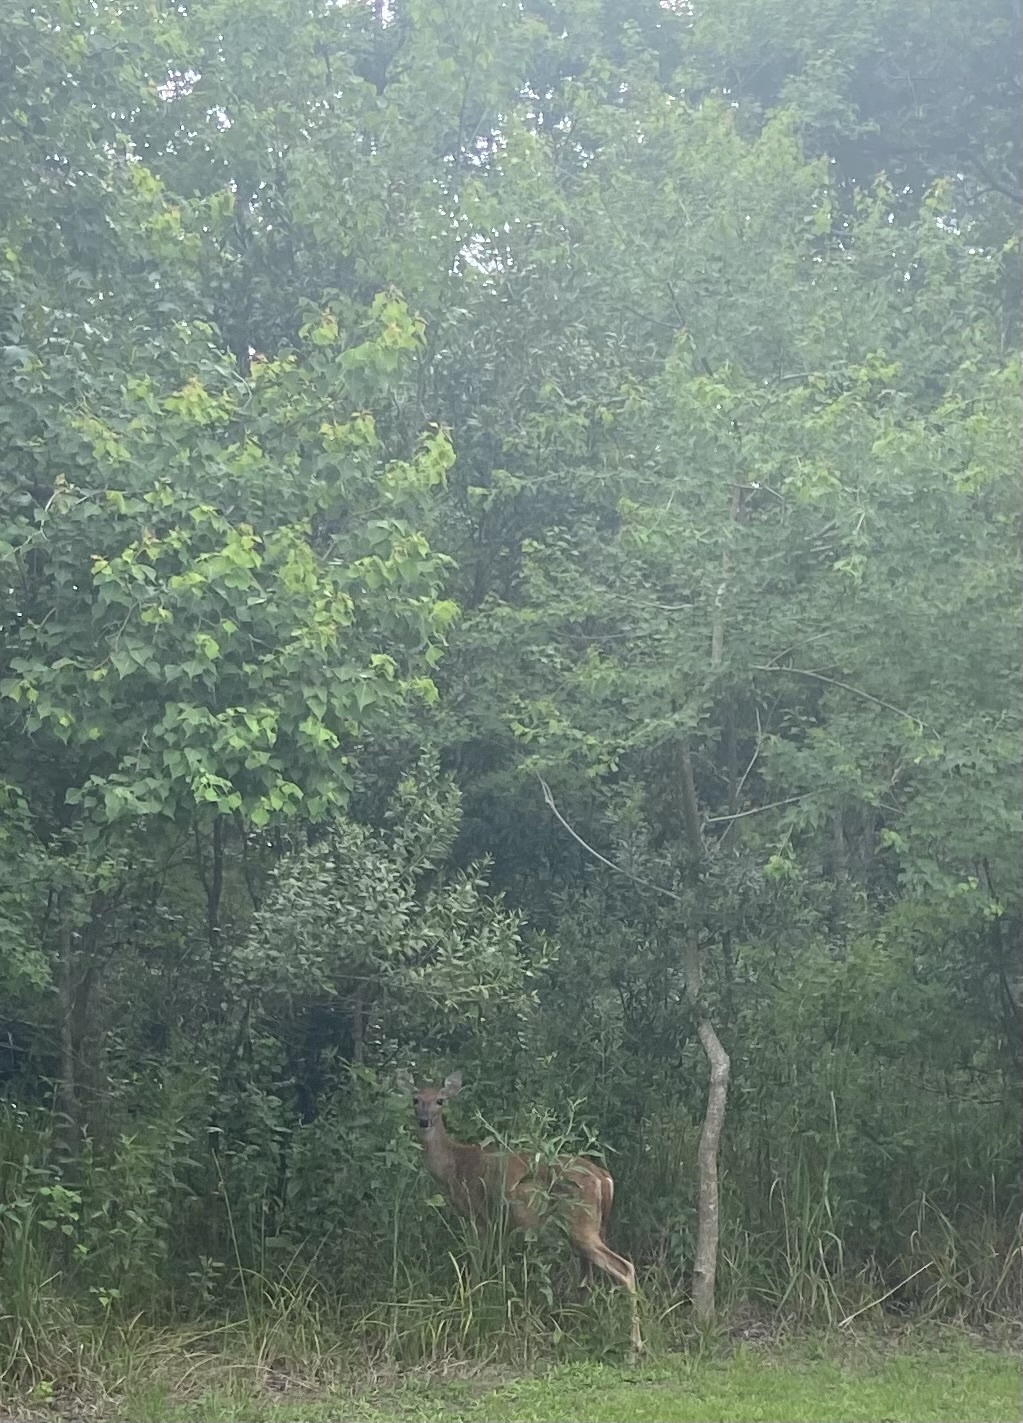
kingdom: Animalia
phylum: Chordata
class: Mammalia
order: Artiodactyla
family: Cervidae
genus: Odocoileus
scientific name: Odocoileus virginianus
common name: White-tailed deer
